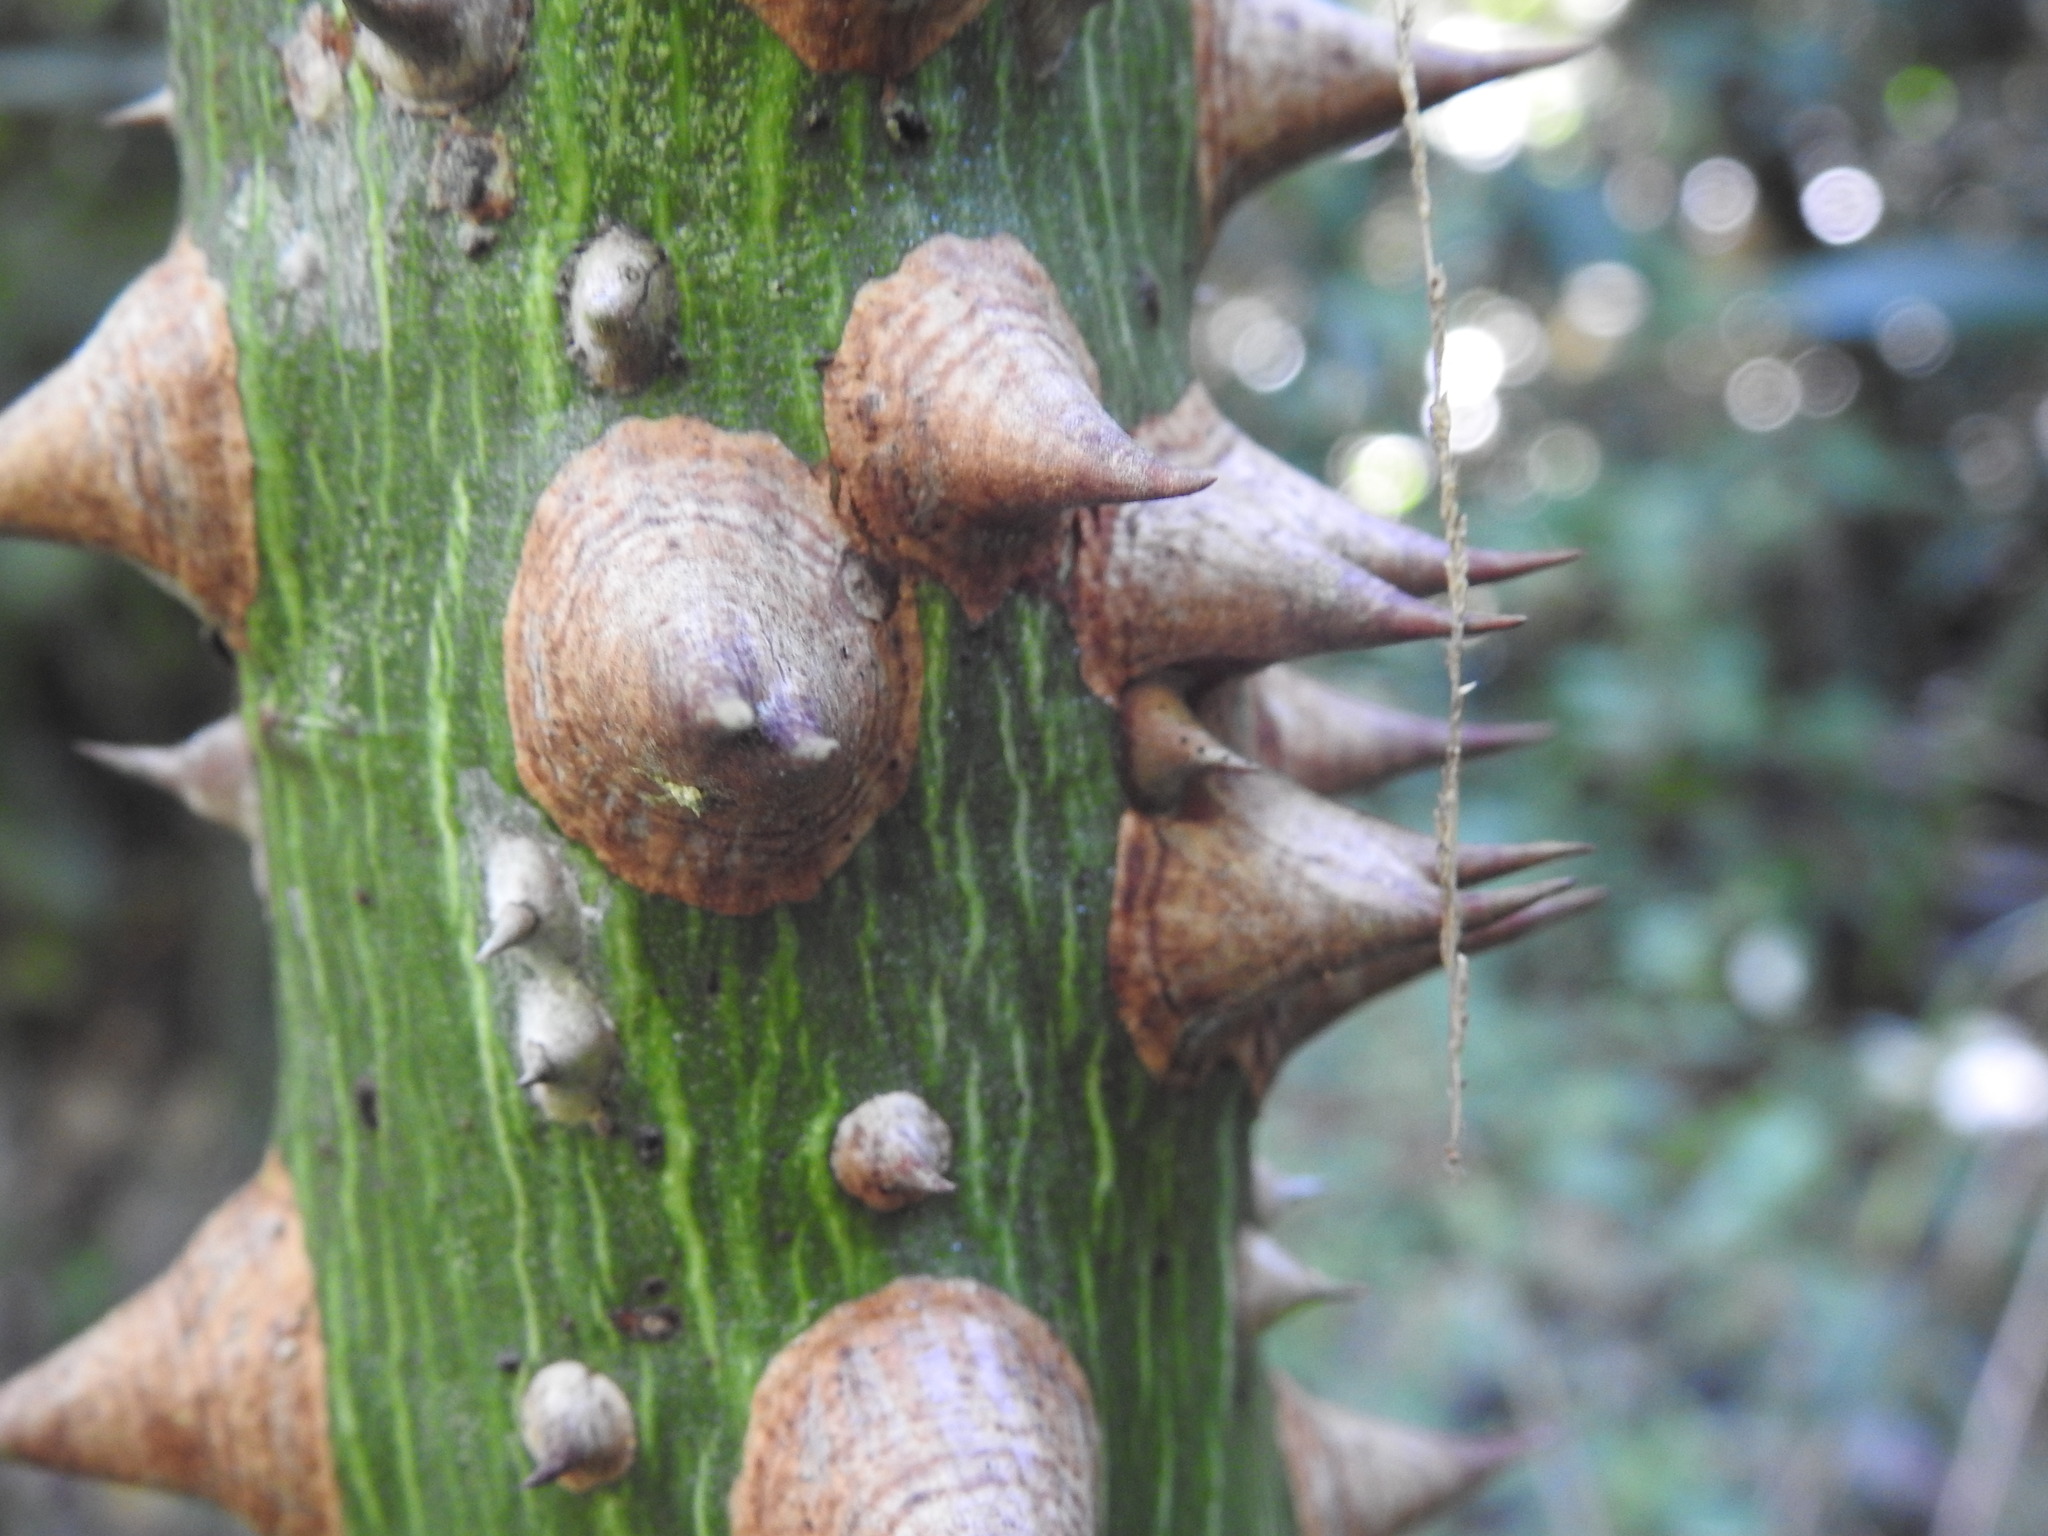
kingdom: Plantae
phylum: Tracheophyta
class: Magnoliopsida
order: Malvales
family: Malvaceae
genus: Ceiba
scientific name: Ceiba pentandra
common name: Kapok
